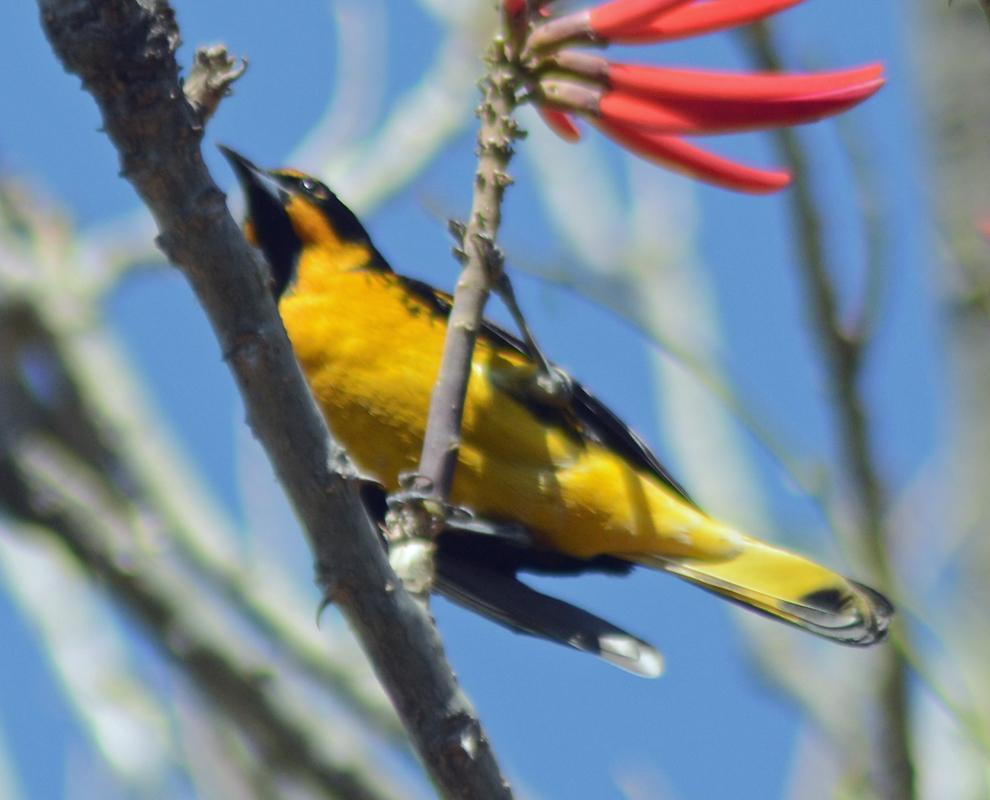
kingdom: Animalia
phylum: Chordata
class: Aves
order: Passeriformes
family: Icteridae
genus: Icterus
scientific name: Icterus abeillei
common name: Black-backed oriole
